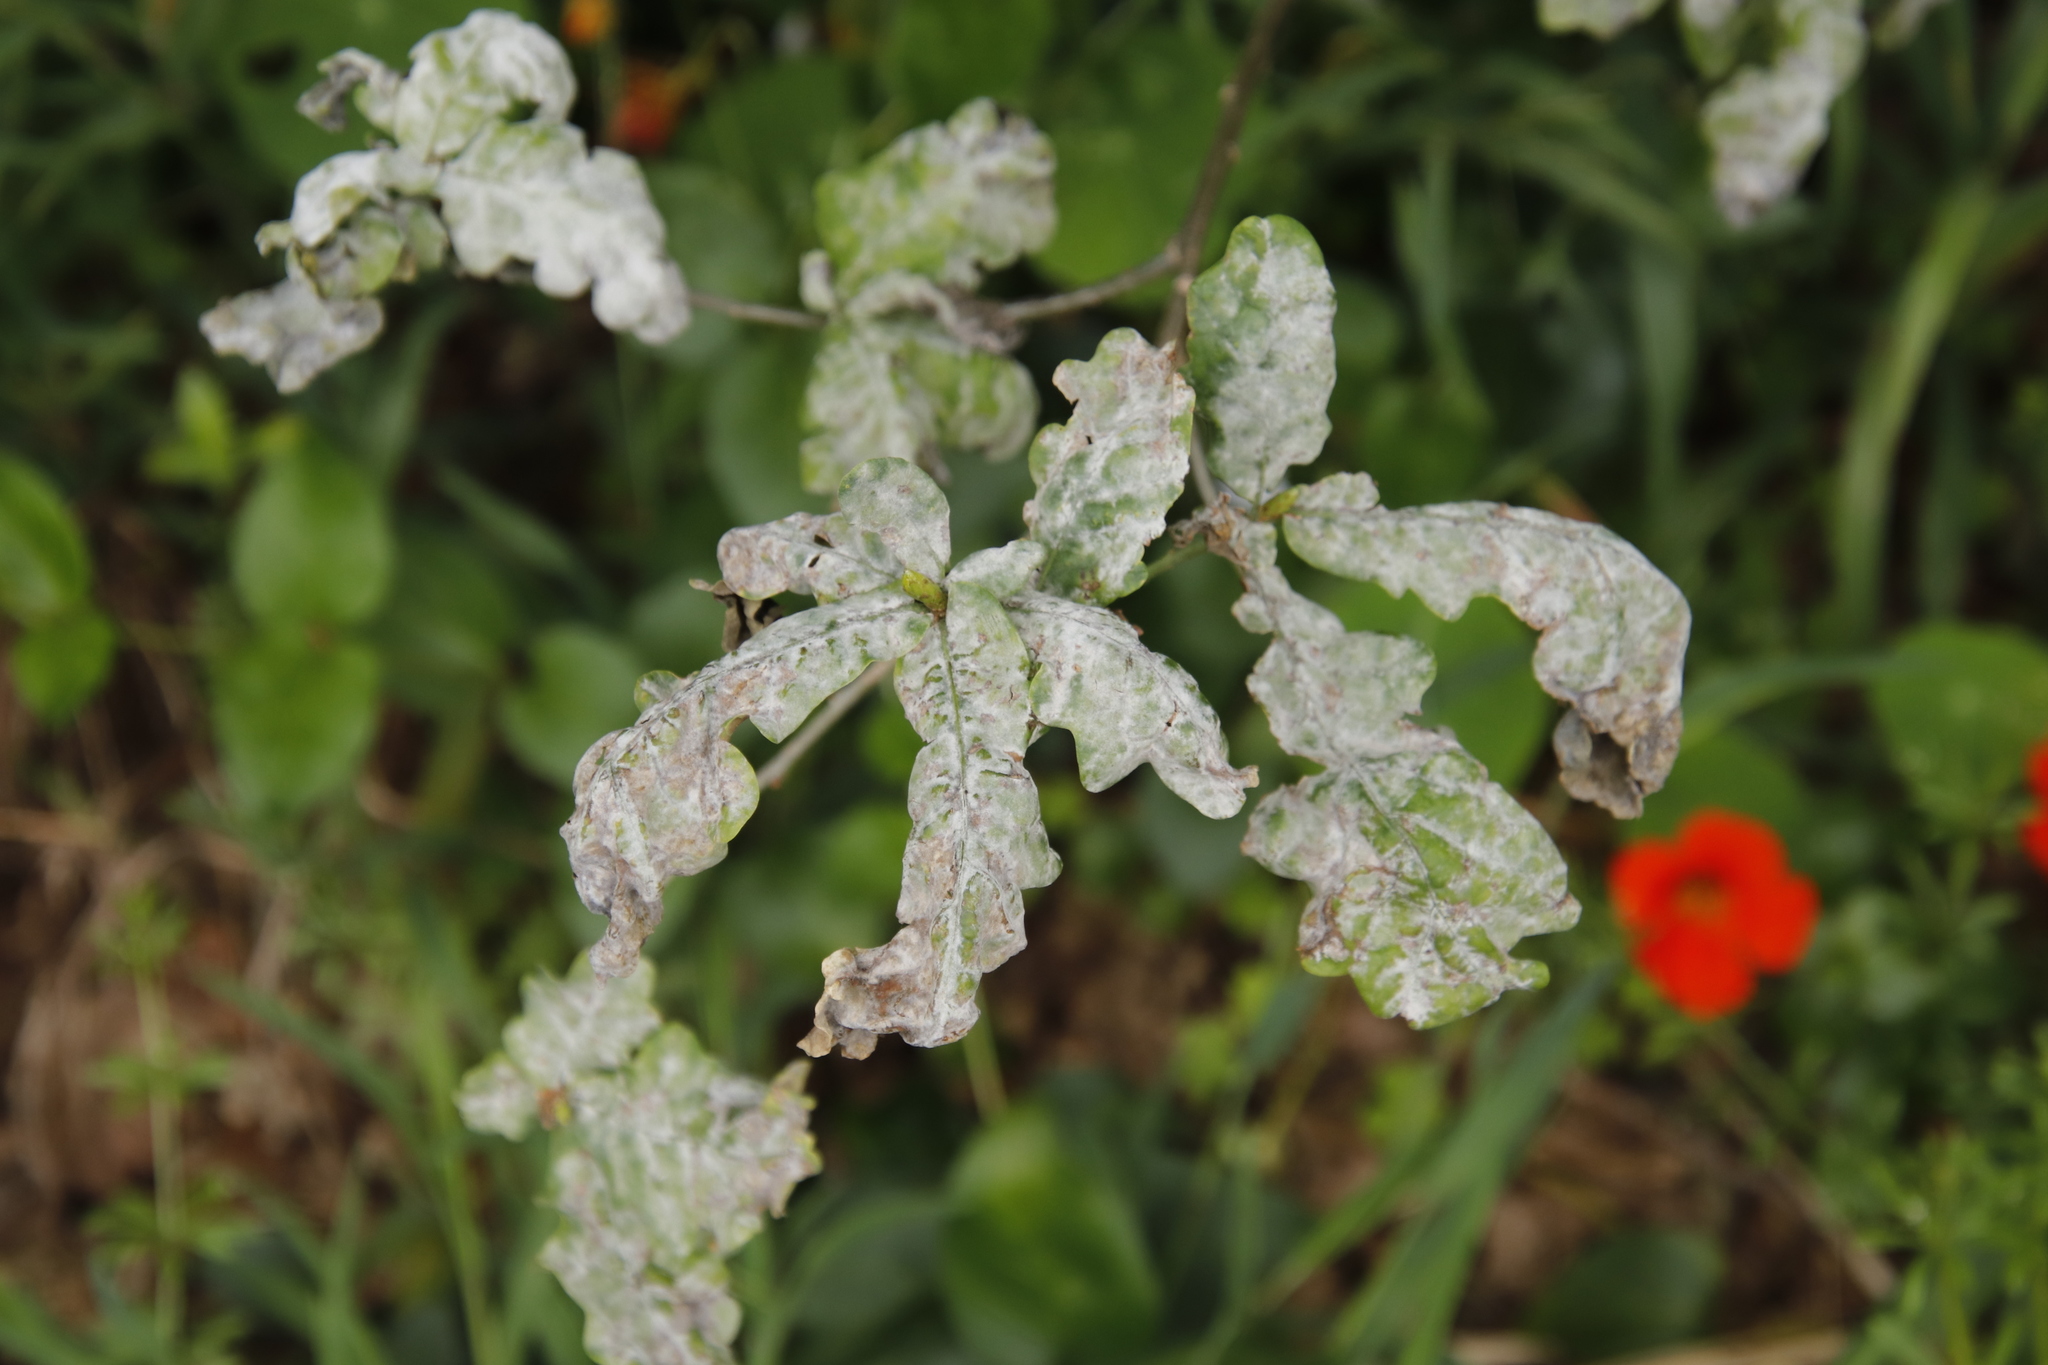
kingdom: Fungi
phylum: Ascomycota
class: Leotiomycetes
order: Helotiales
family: Erysiphaceae
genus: Erysiphe
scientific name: Erysiphe alphitoides
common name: Oak mildew
